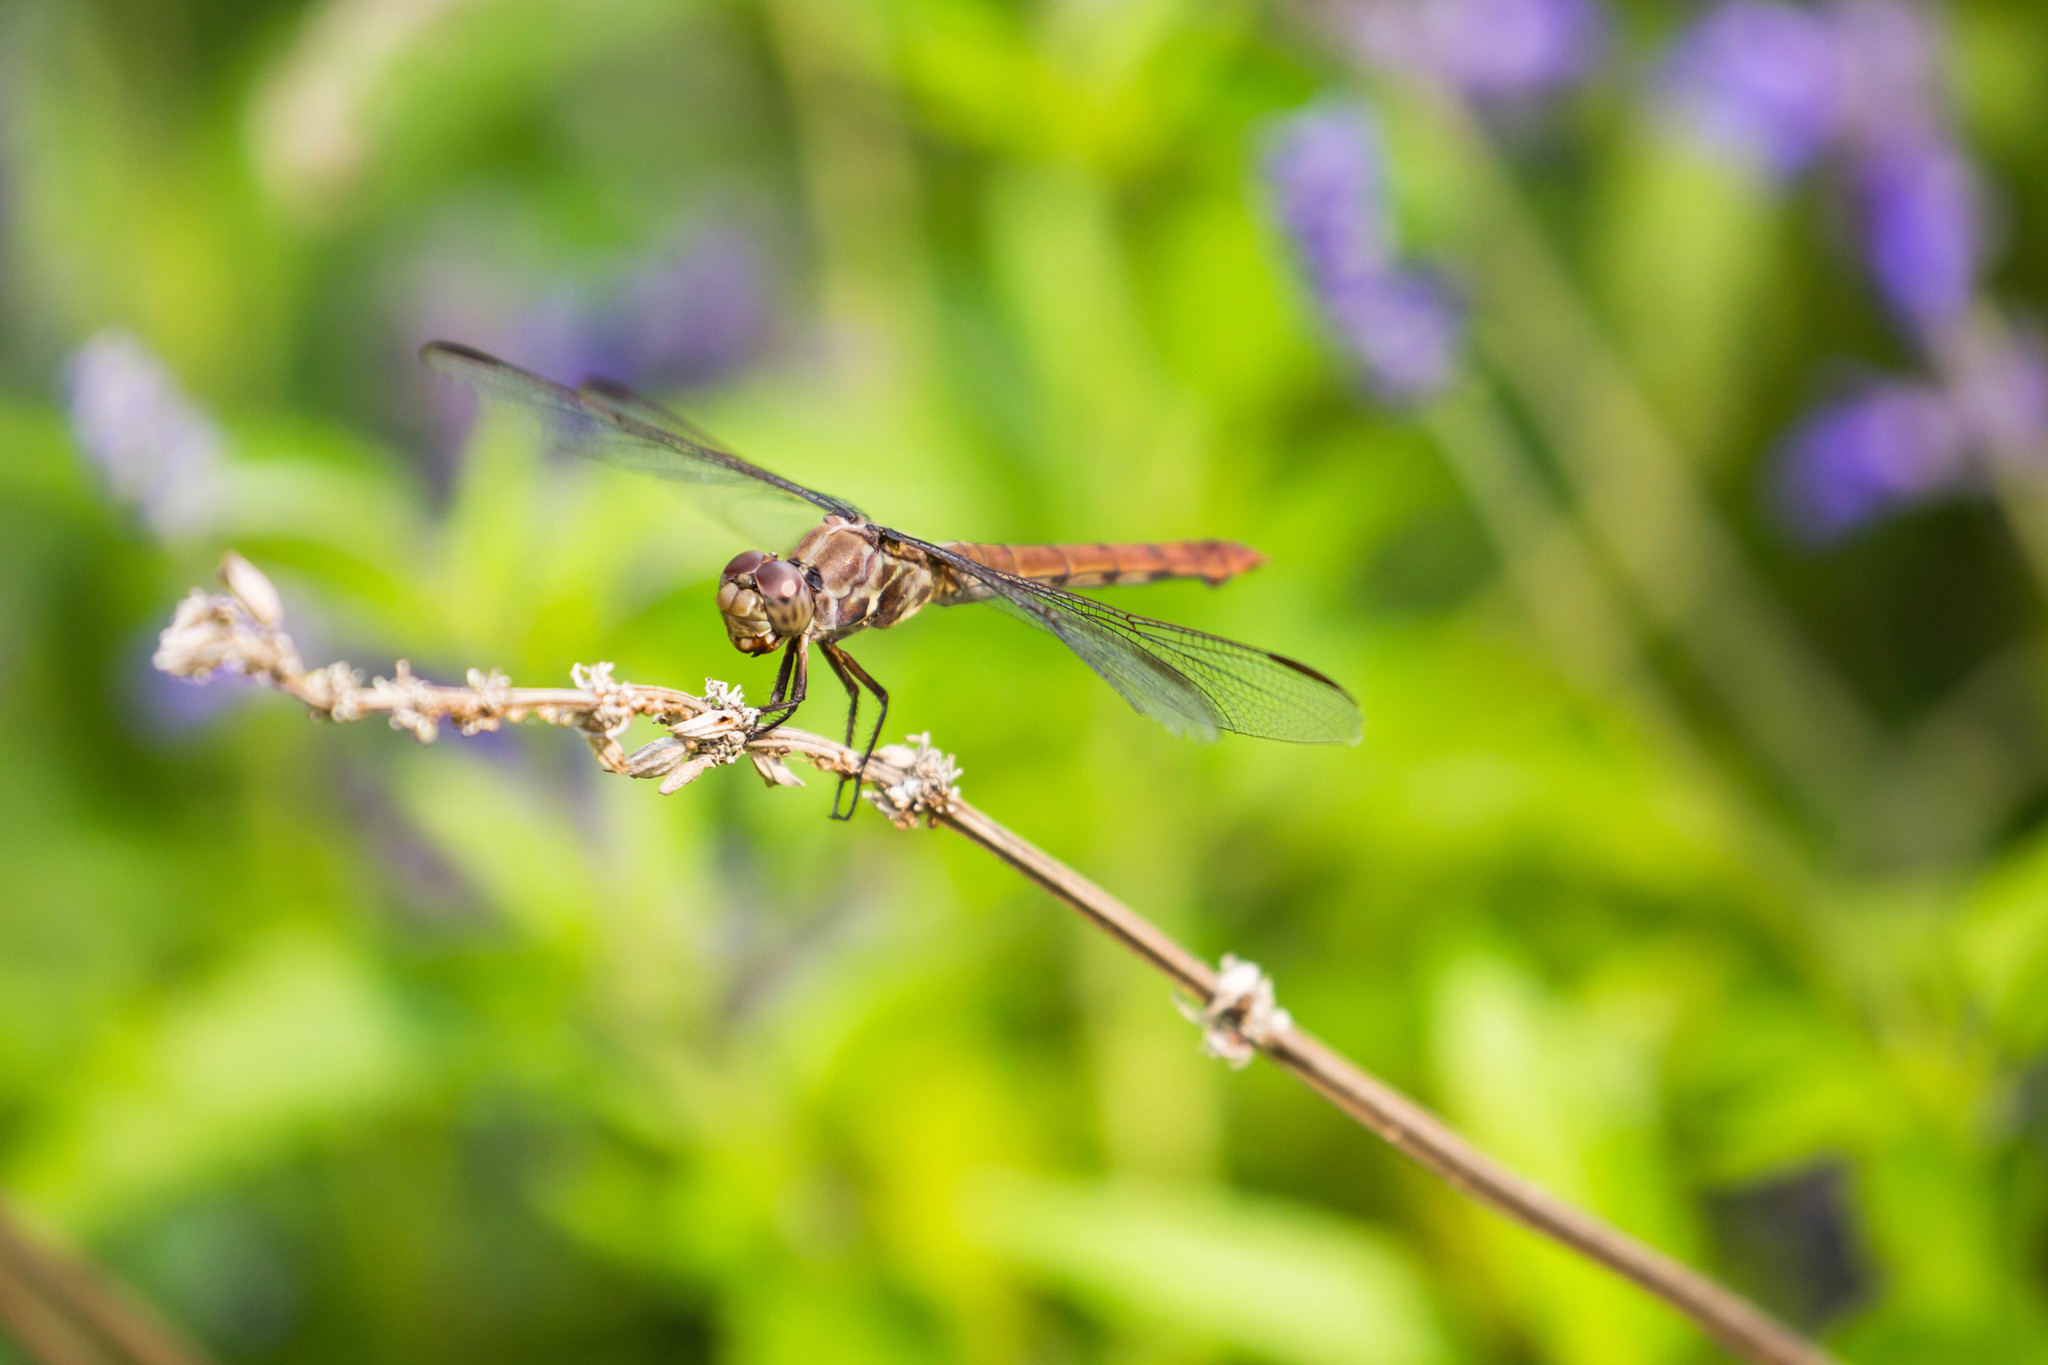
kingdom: Animalia
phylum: Arthropoda
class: Insecta
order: Odonata
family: Libellulidae
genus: Orthemis
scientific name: Orthemis ferruginea
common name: Roseate skimmer
